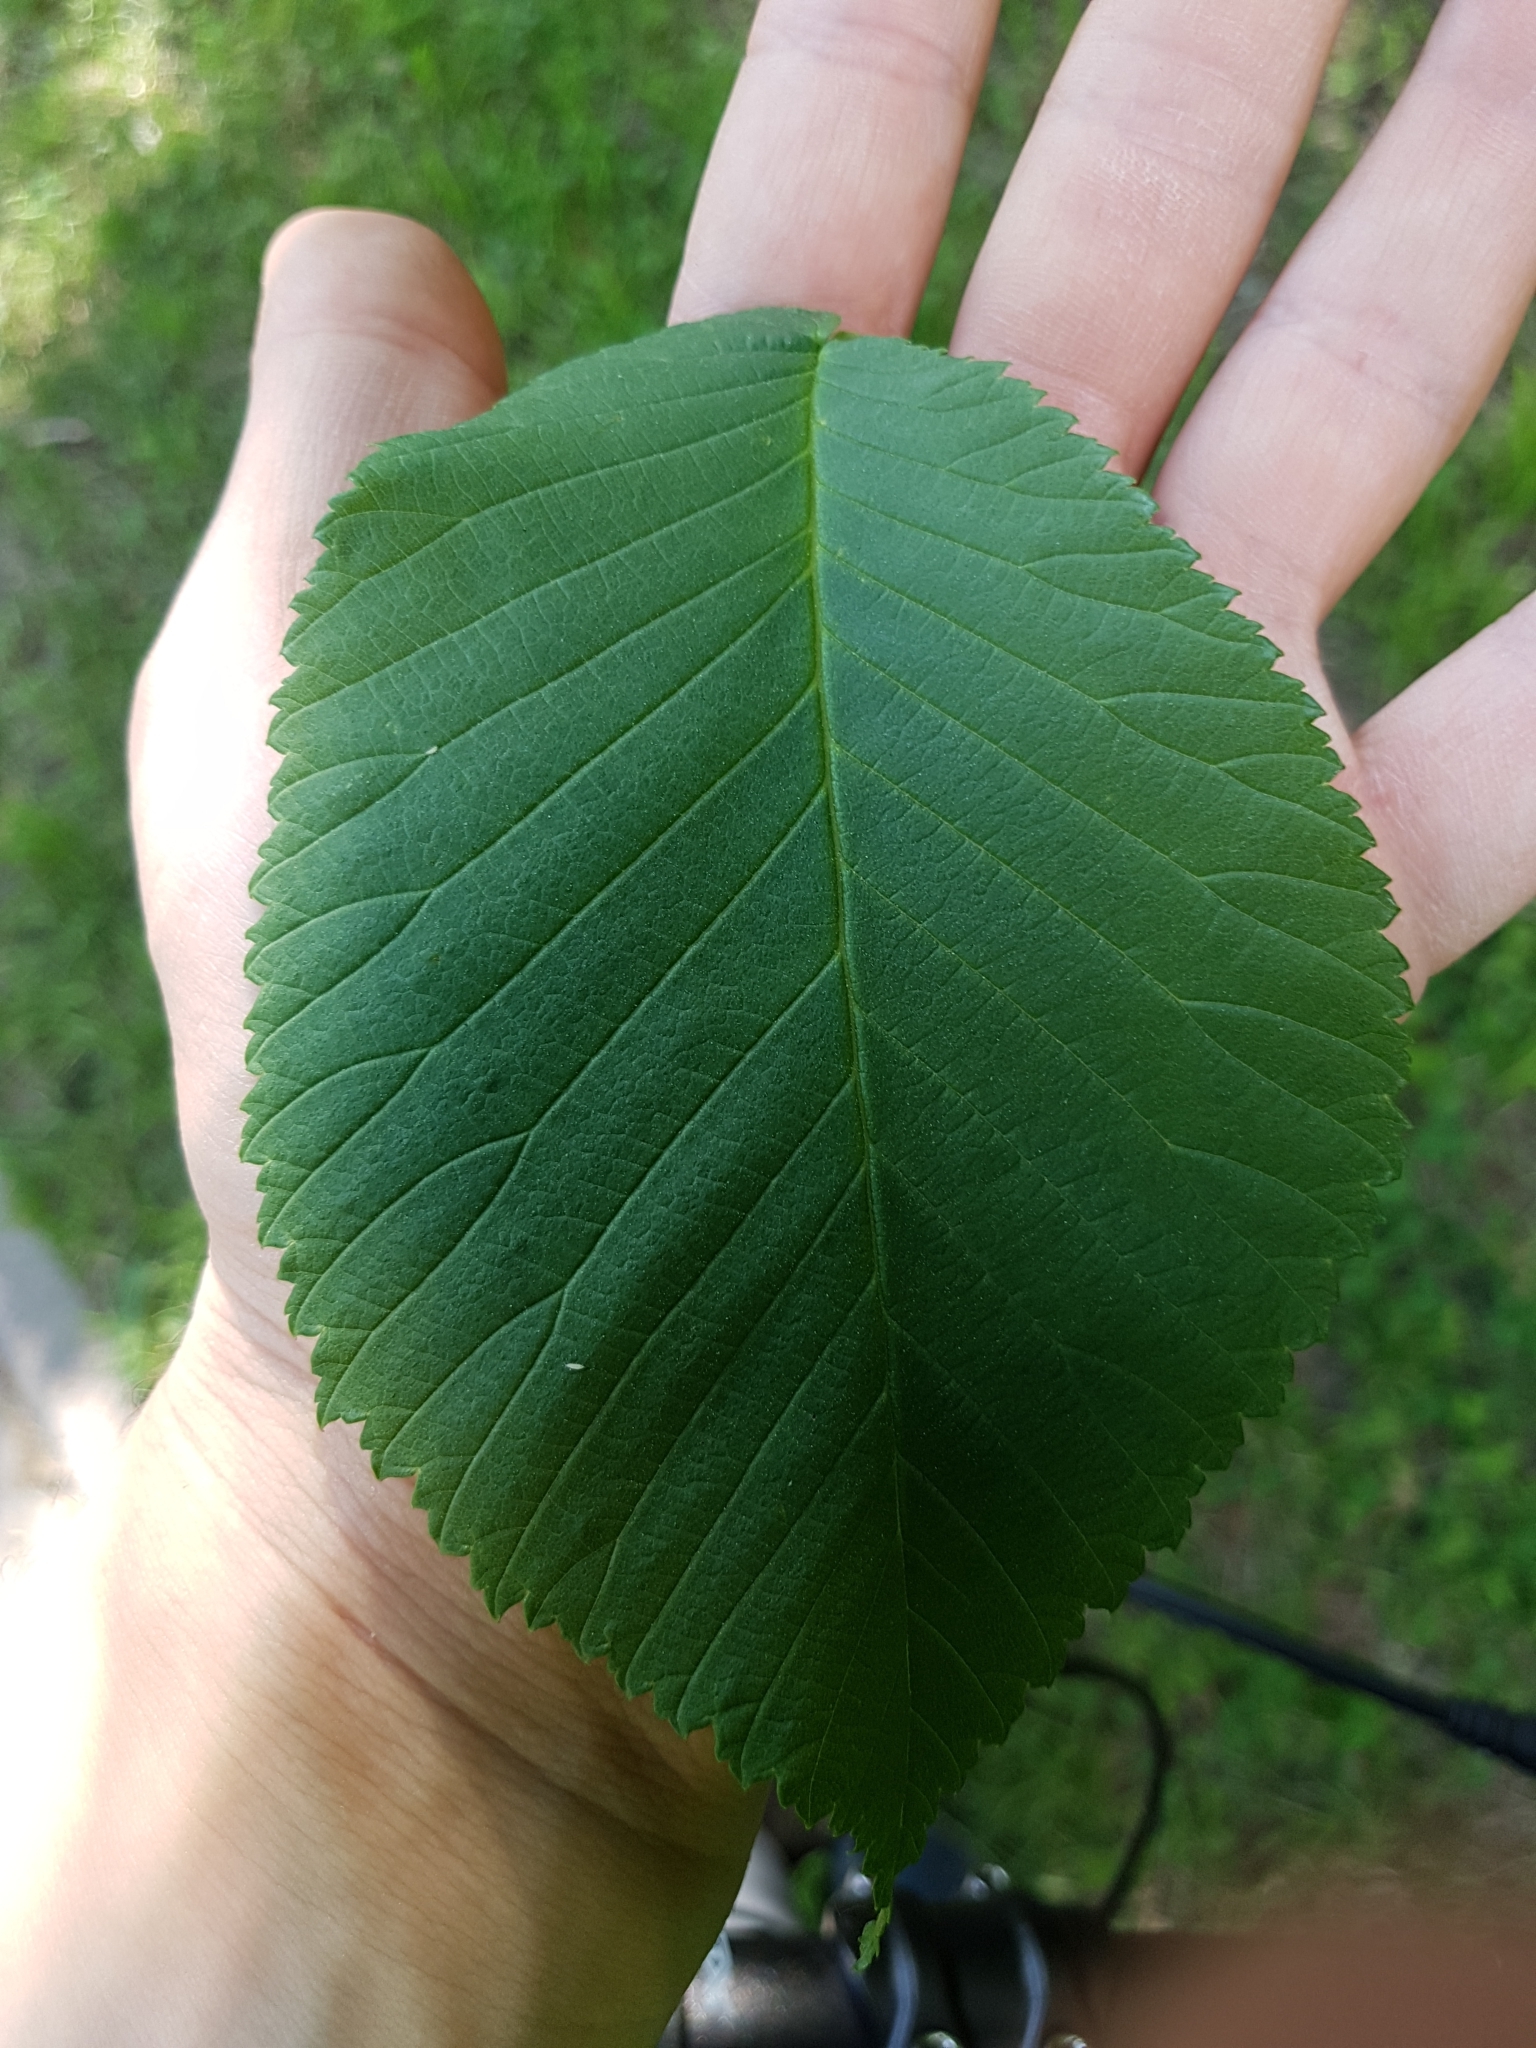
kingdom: Plantae
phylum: Tracheophyta
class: Magnoliopsida
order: Rosales
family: Ulmaceae
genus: Ulmus
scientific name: Ulmus glabra
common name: Wych elm
